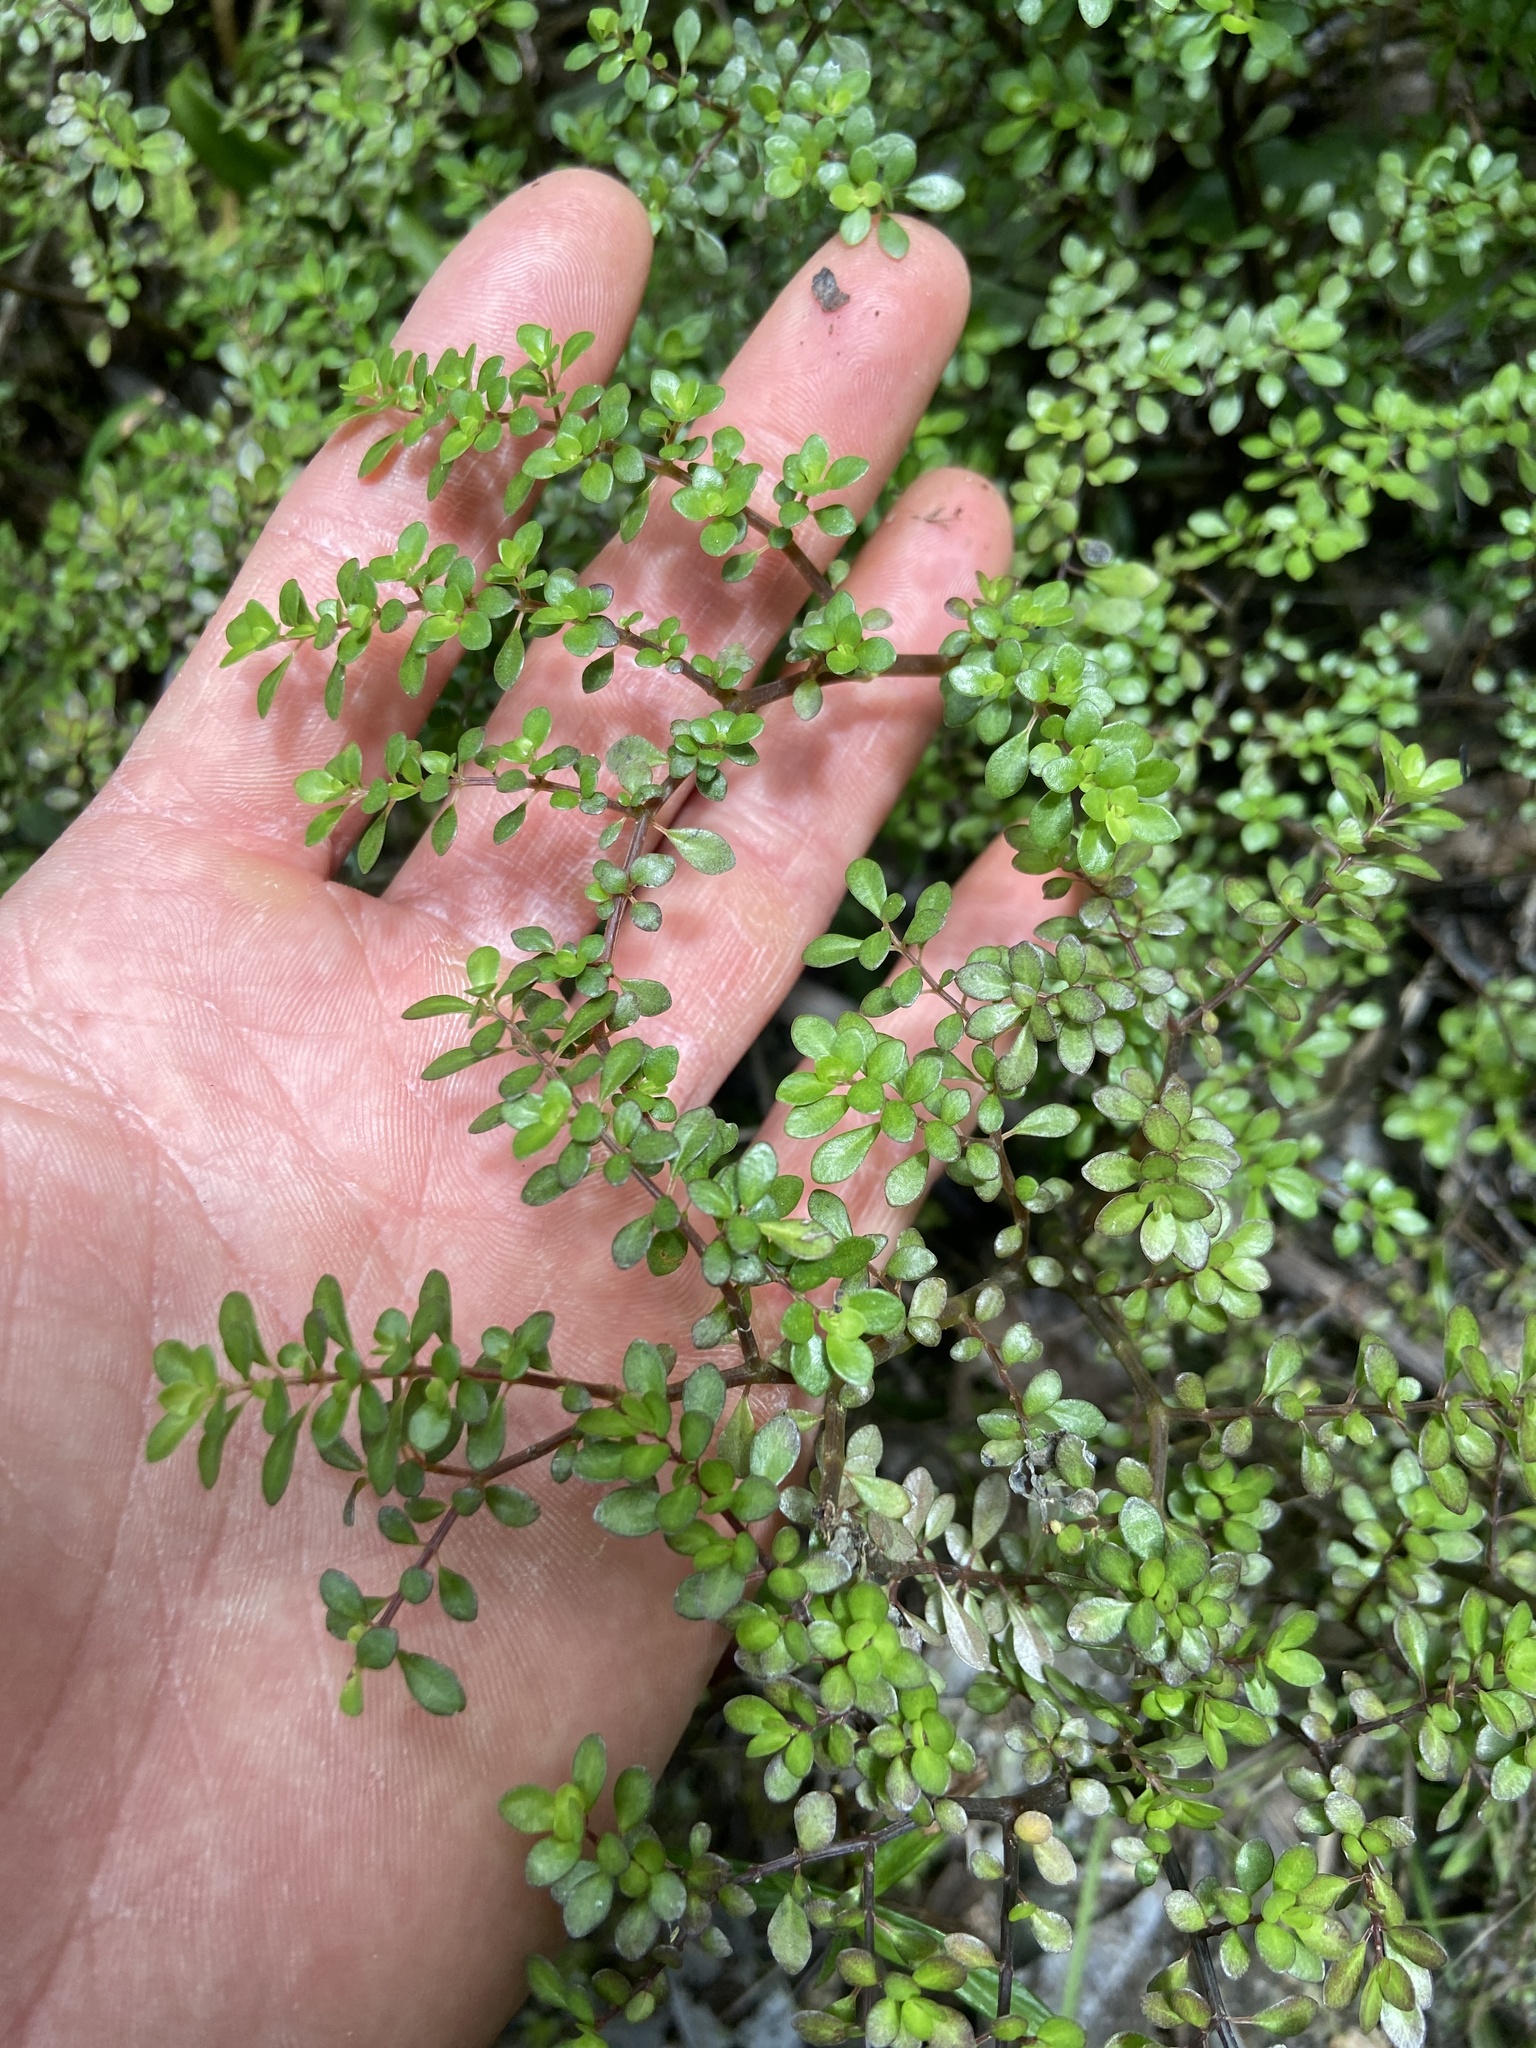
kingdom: Plantae
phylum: Tracheophyta
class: Magnoliopsida
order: Rosales
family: Urticaceae
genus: Pilea
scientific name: Pilea microphylla
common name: Artillery-plant
